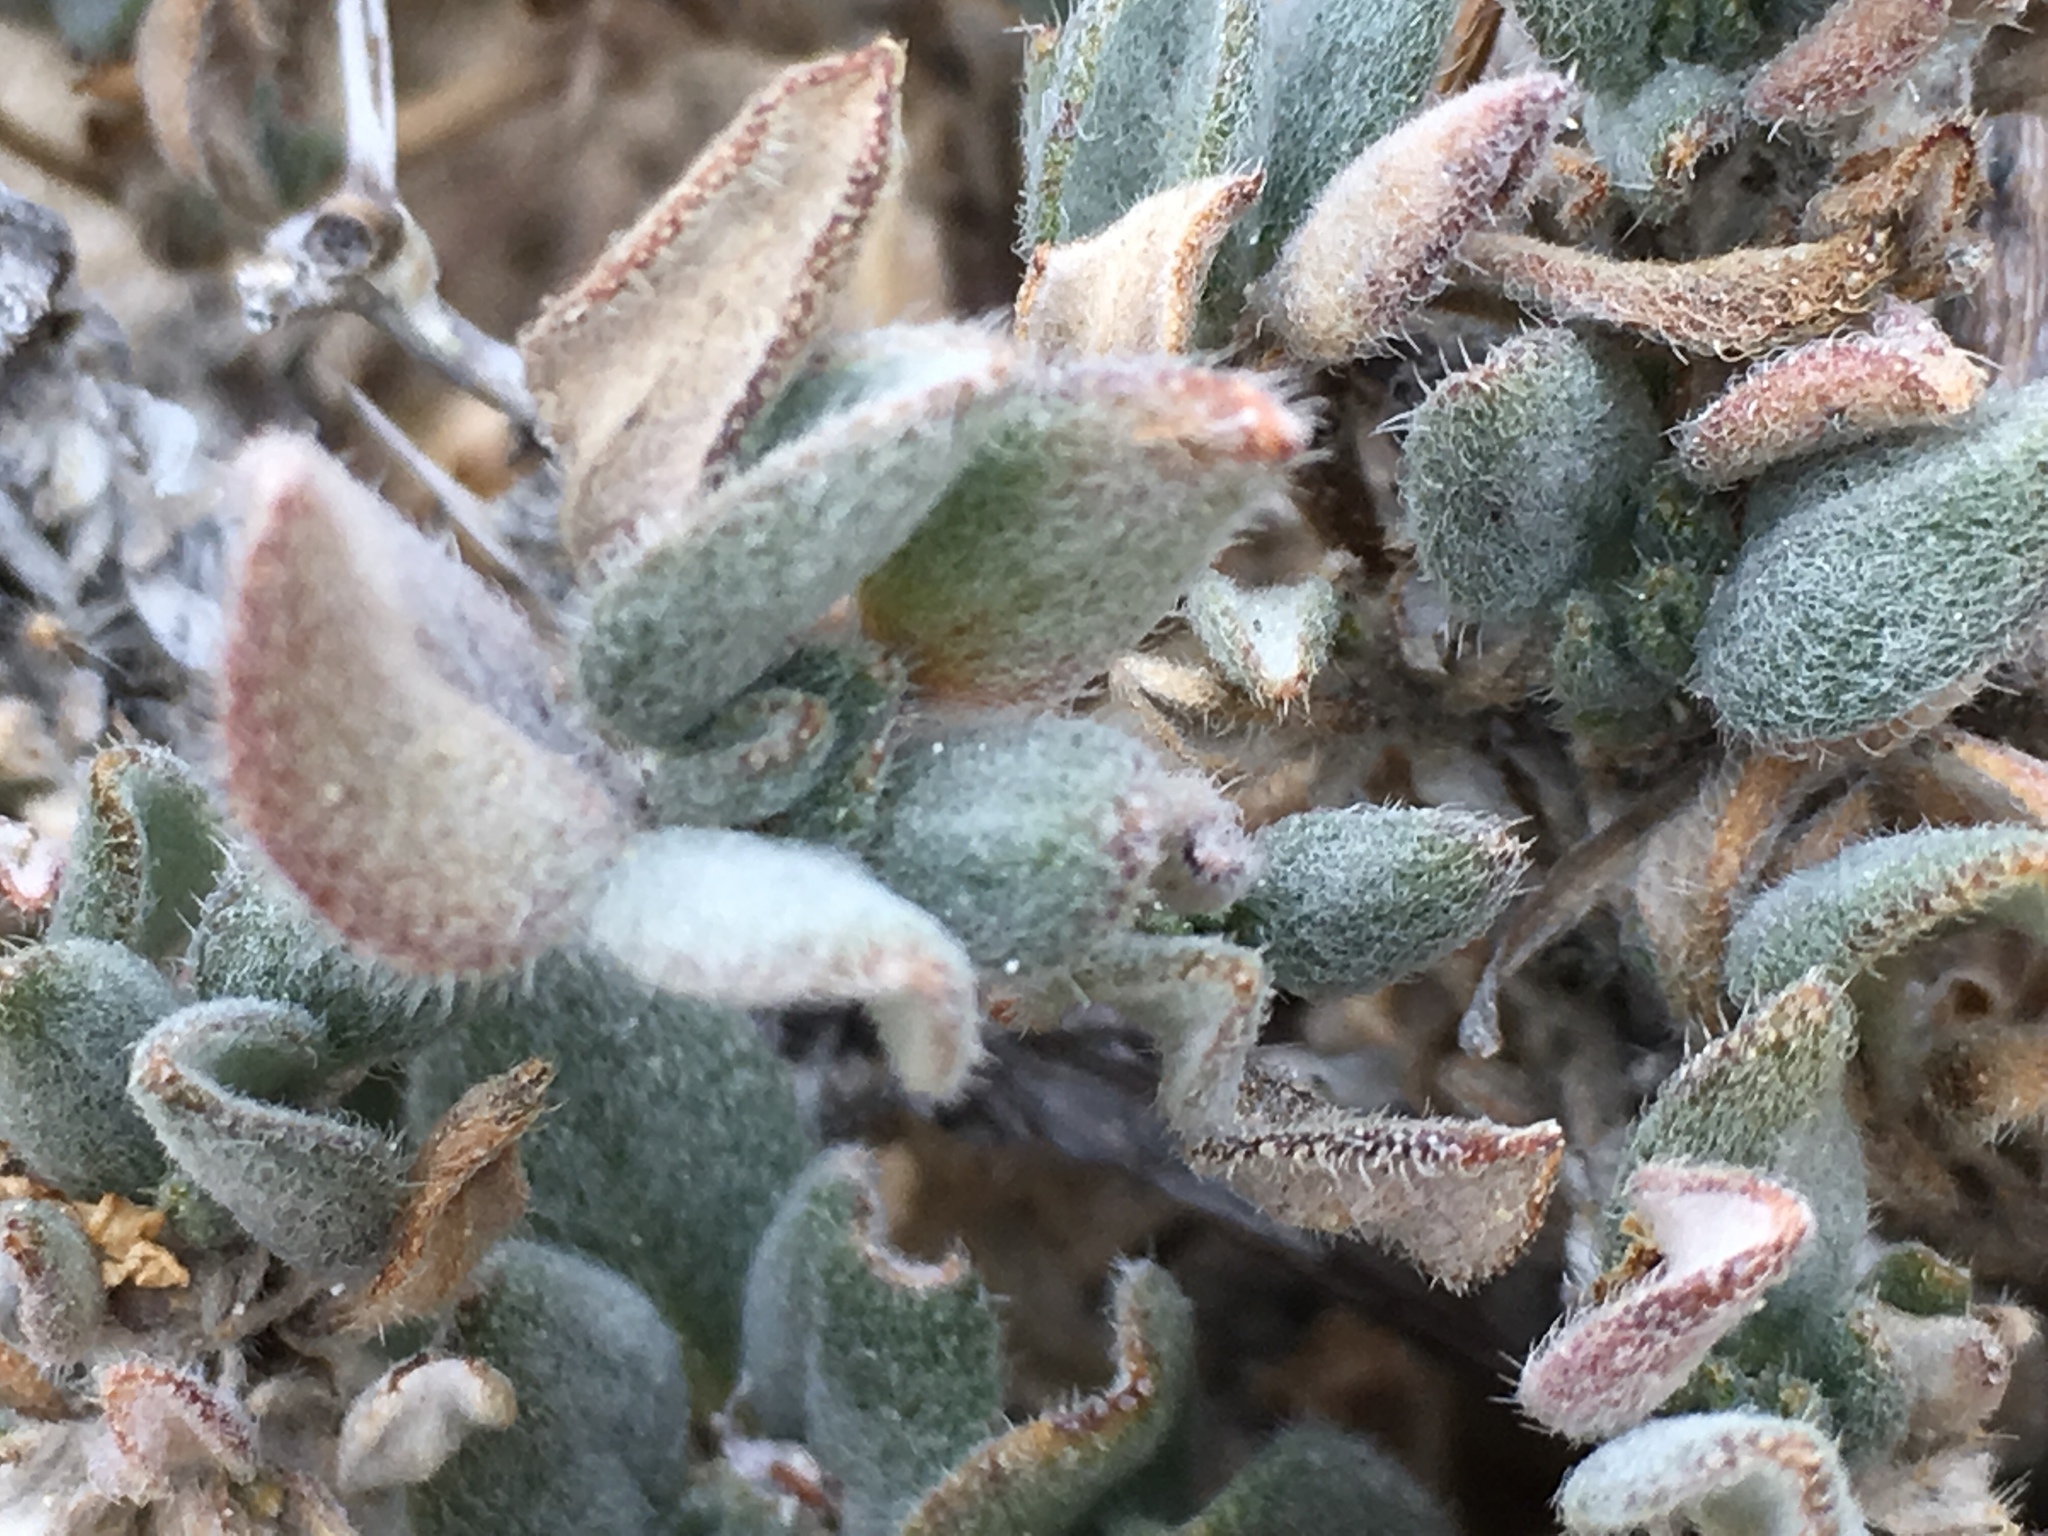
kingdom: Plantae
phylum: Tracheophyta
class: Magnoliopsida
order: Boraginales
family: Ehretiaceae
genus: Tiquilia
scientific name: Tiquilia canescens
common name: Hairy tiquilia
